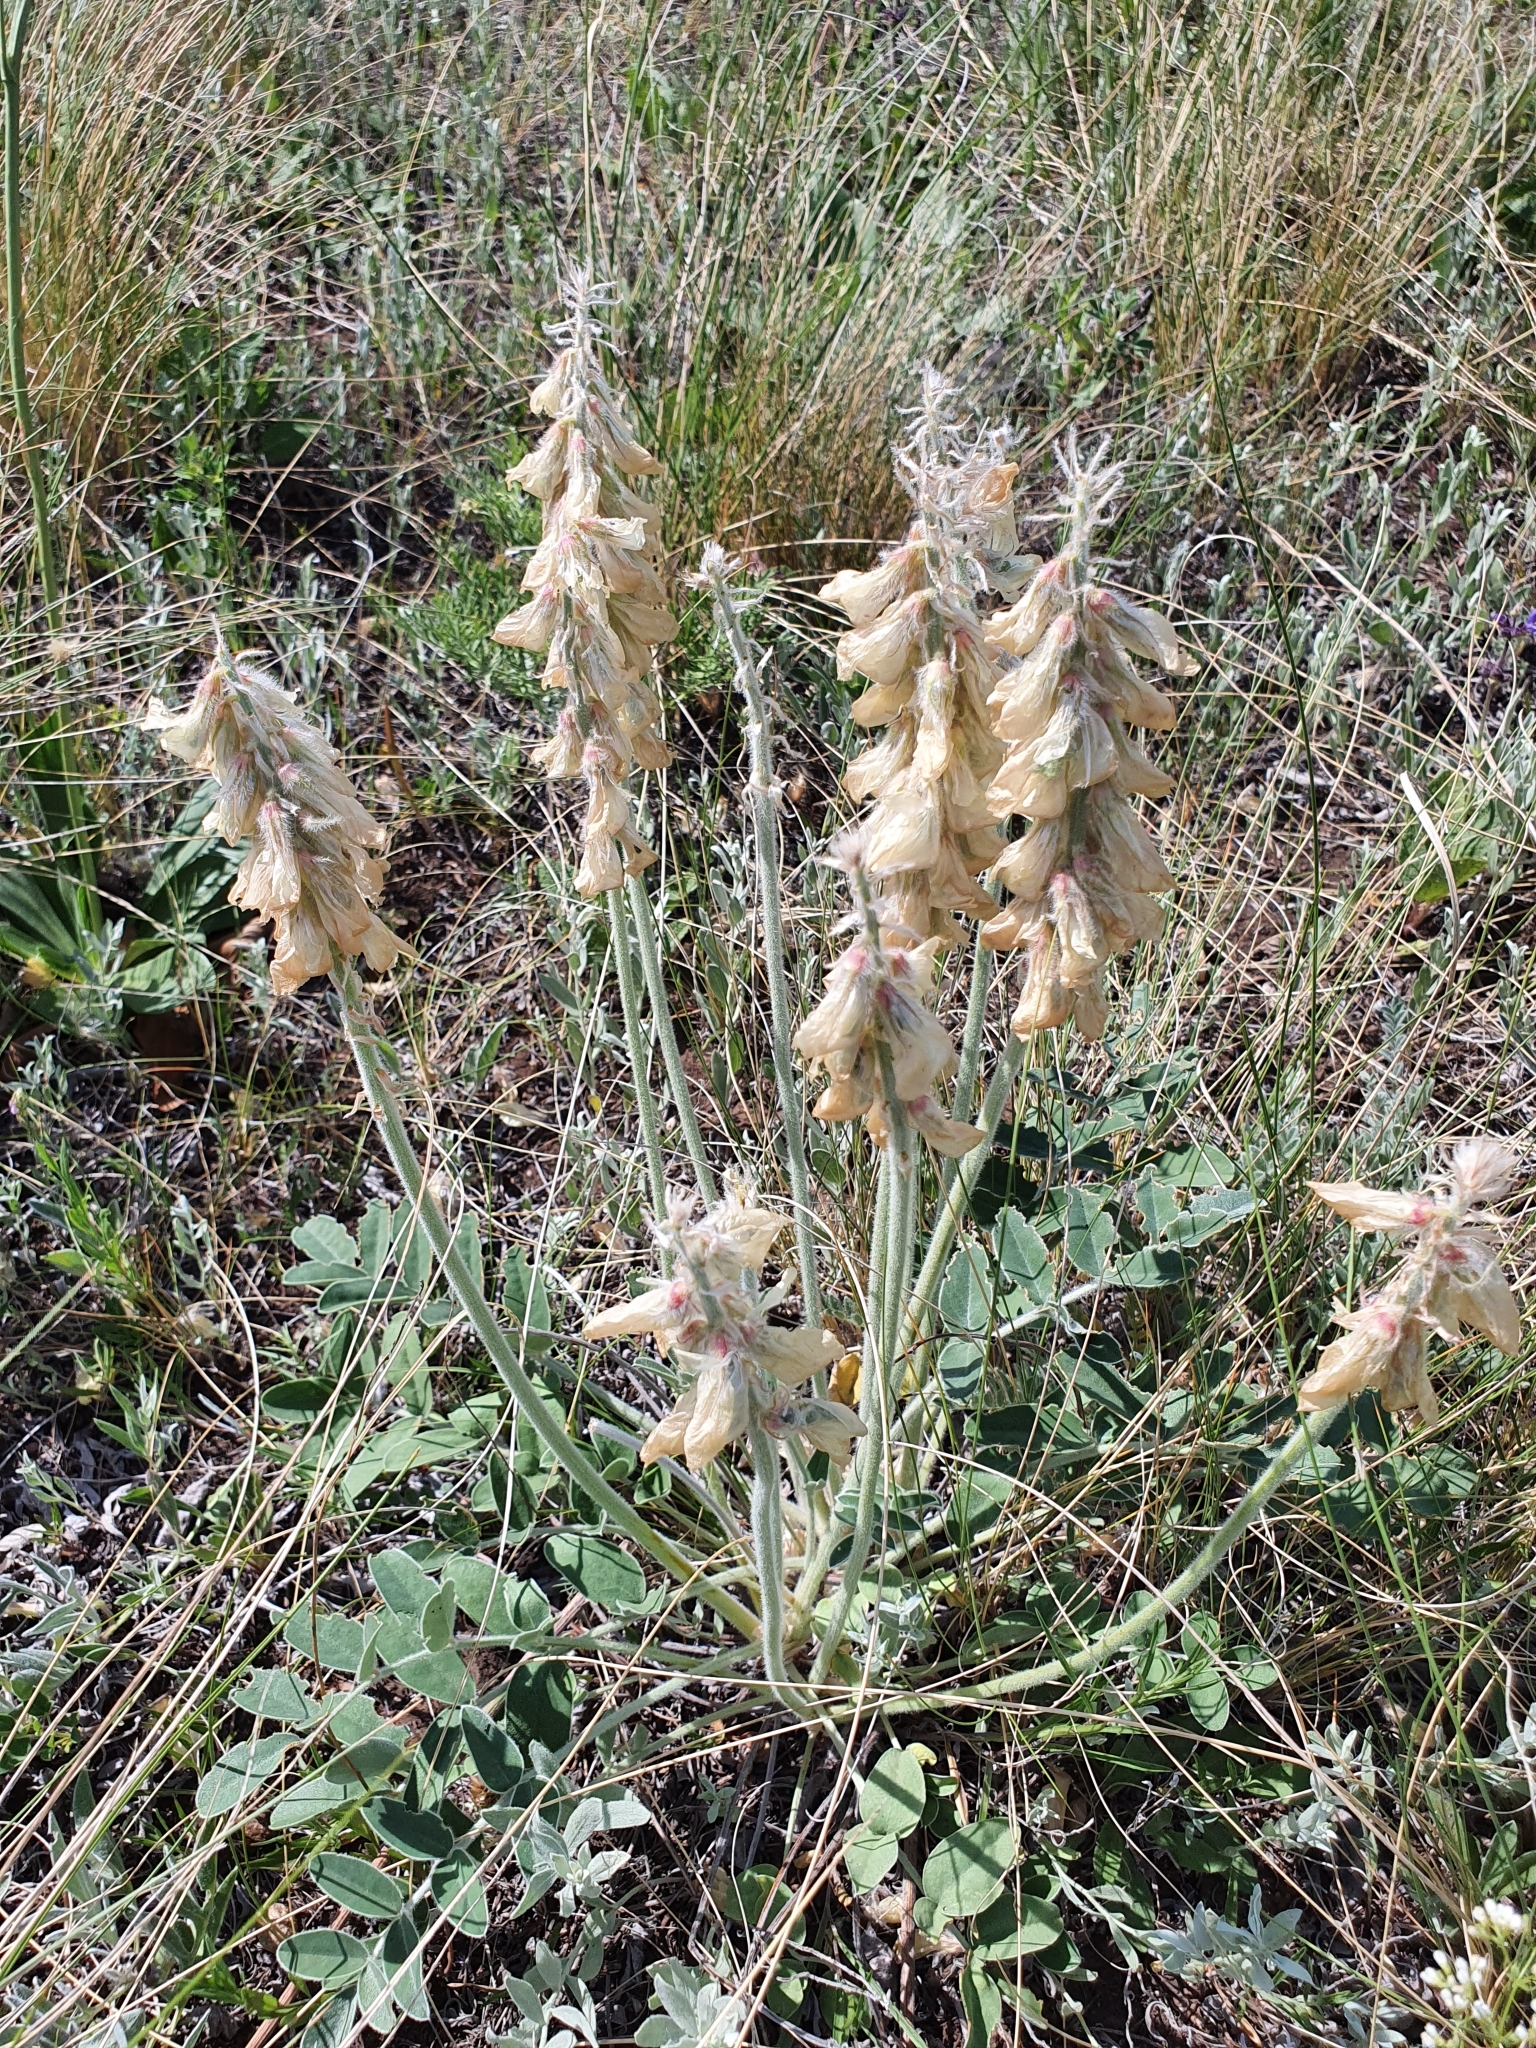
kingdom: Plantae
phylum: Tracheophyta
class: Magnoliopsida
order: Fabales
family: Fabaceae
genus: Hedysarum
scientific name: Hedysarum grandiflorum
